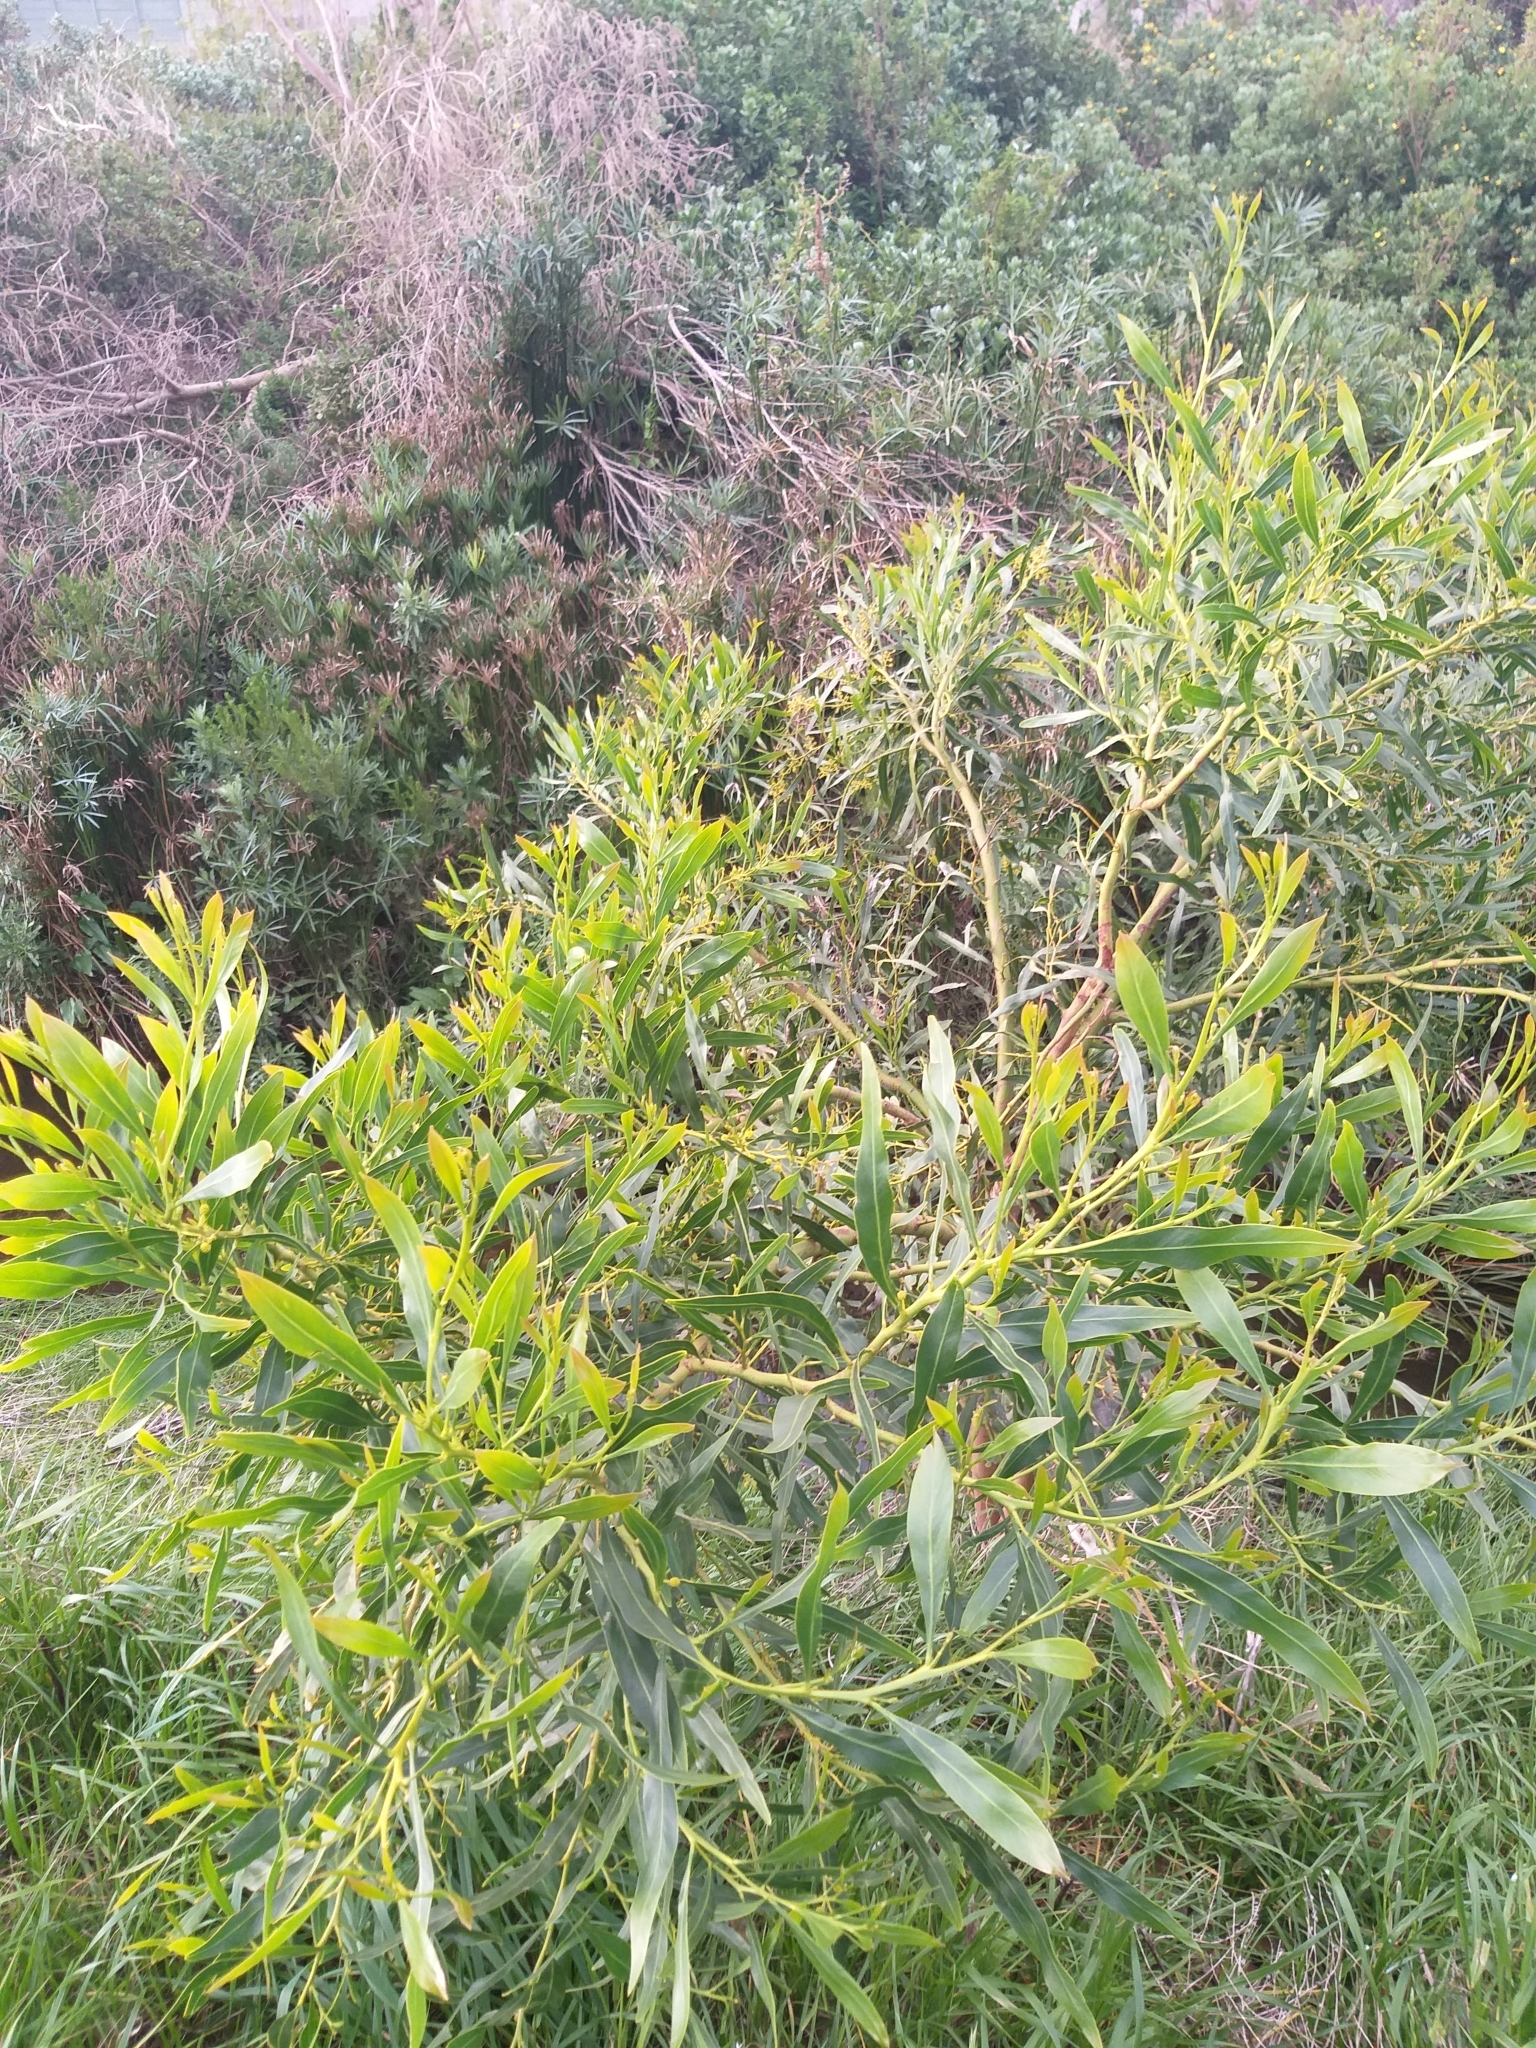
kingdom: Plantae
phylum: Tracheophyta
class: Magnoliopsida
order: Fabales
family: Fabaceae
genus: Acacia
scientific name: Acacia saligna
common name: Orange wattle
